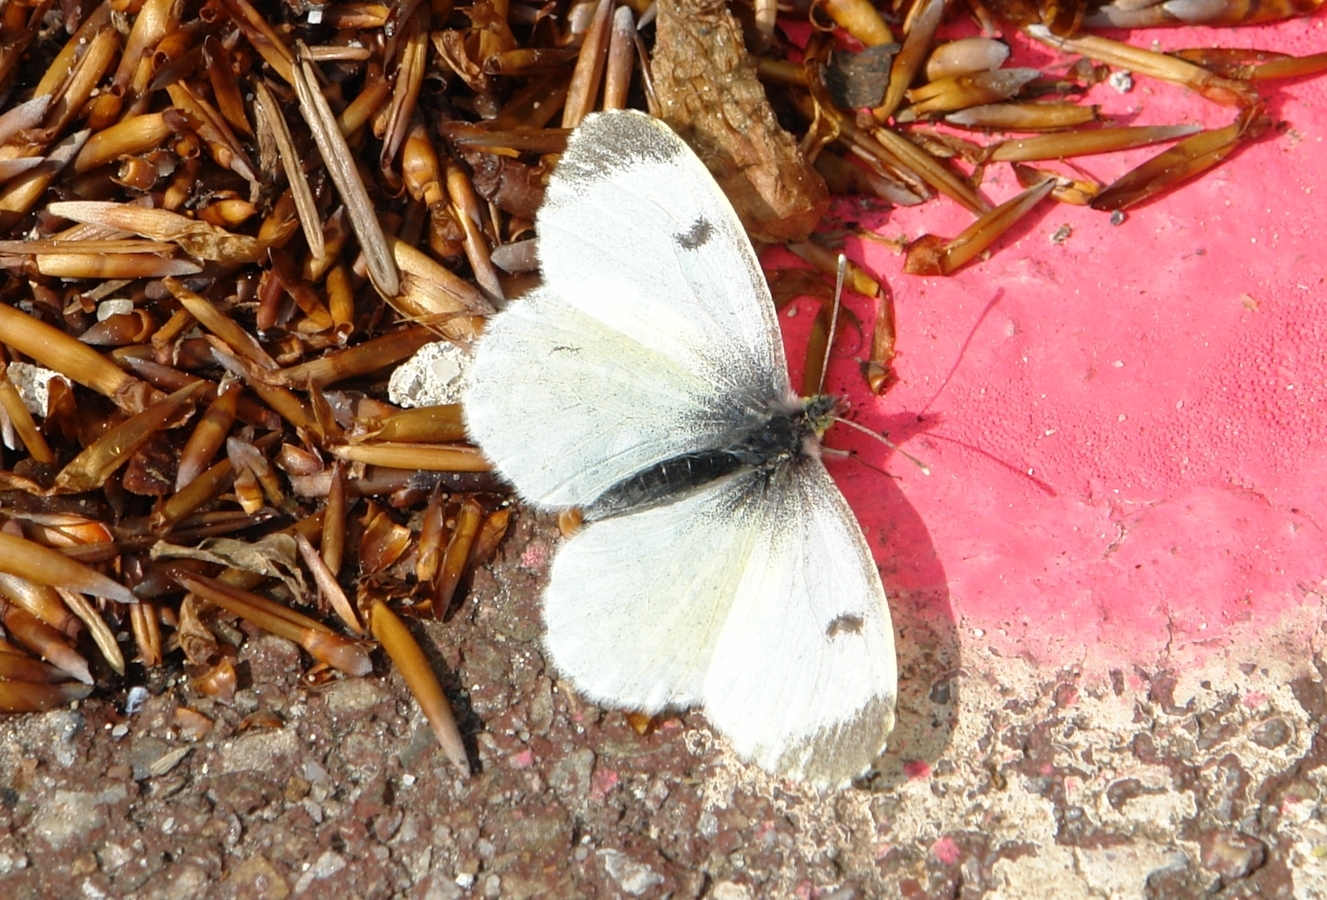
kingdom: Animalia
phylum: Arthropoda
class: Insecta
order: Lepidoptera
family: Pieridae
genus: Anthocharis
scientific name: Anthocharis cardamines
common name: Orange-tip
